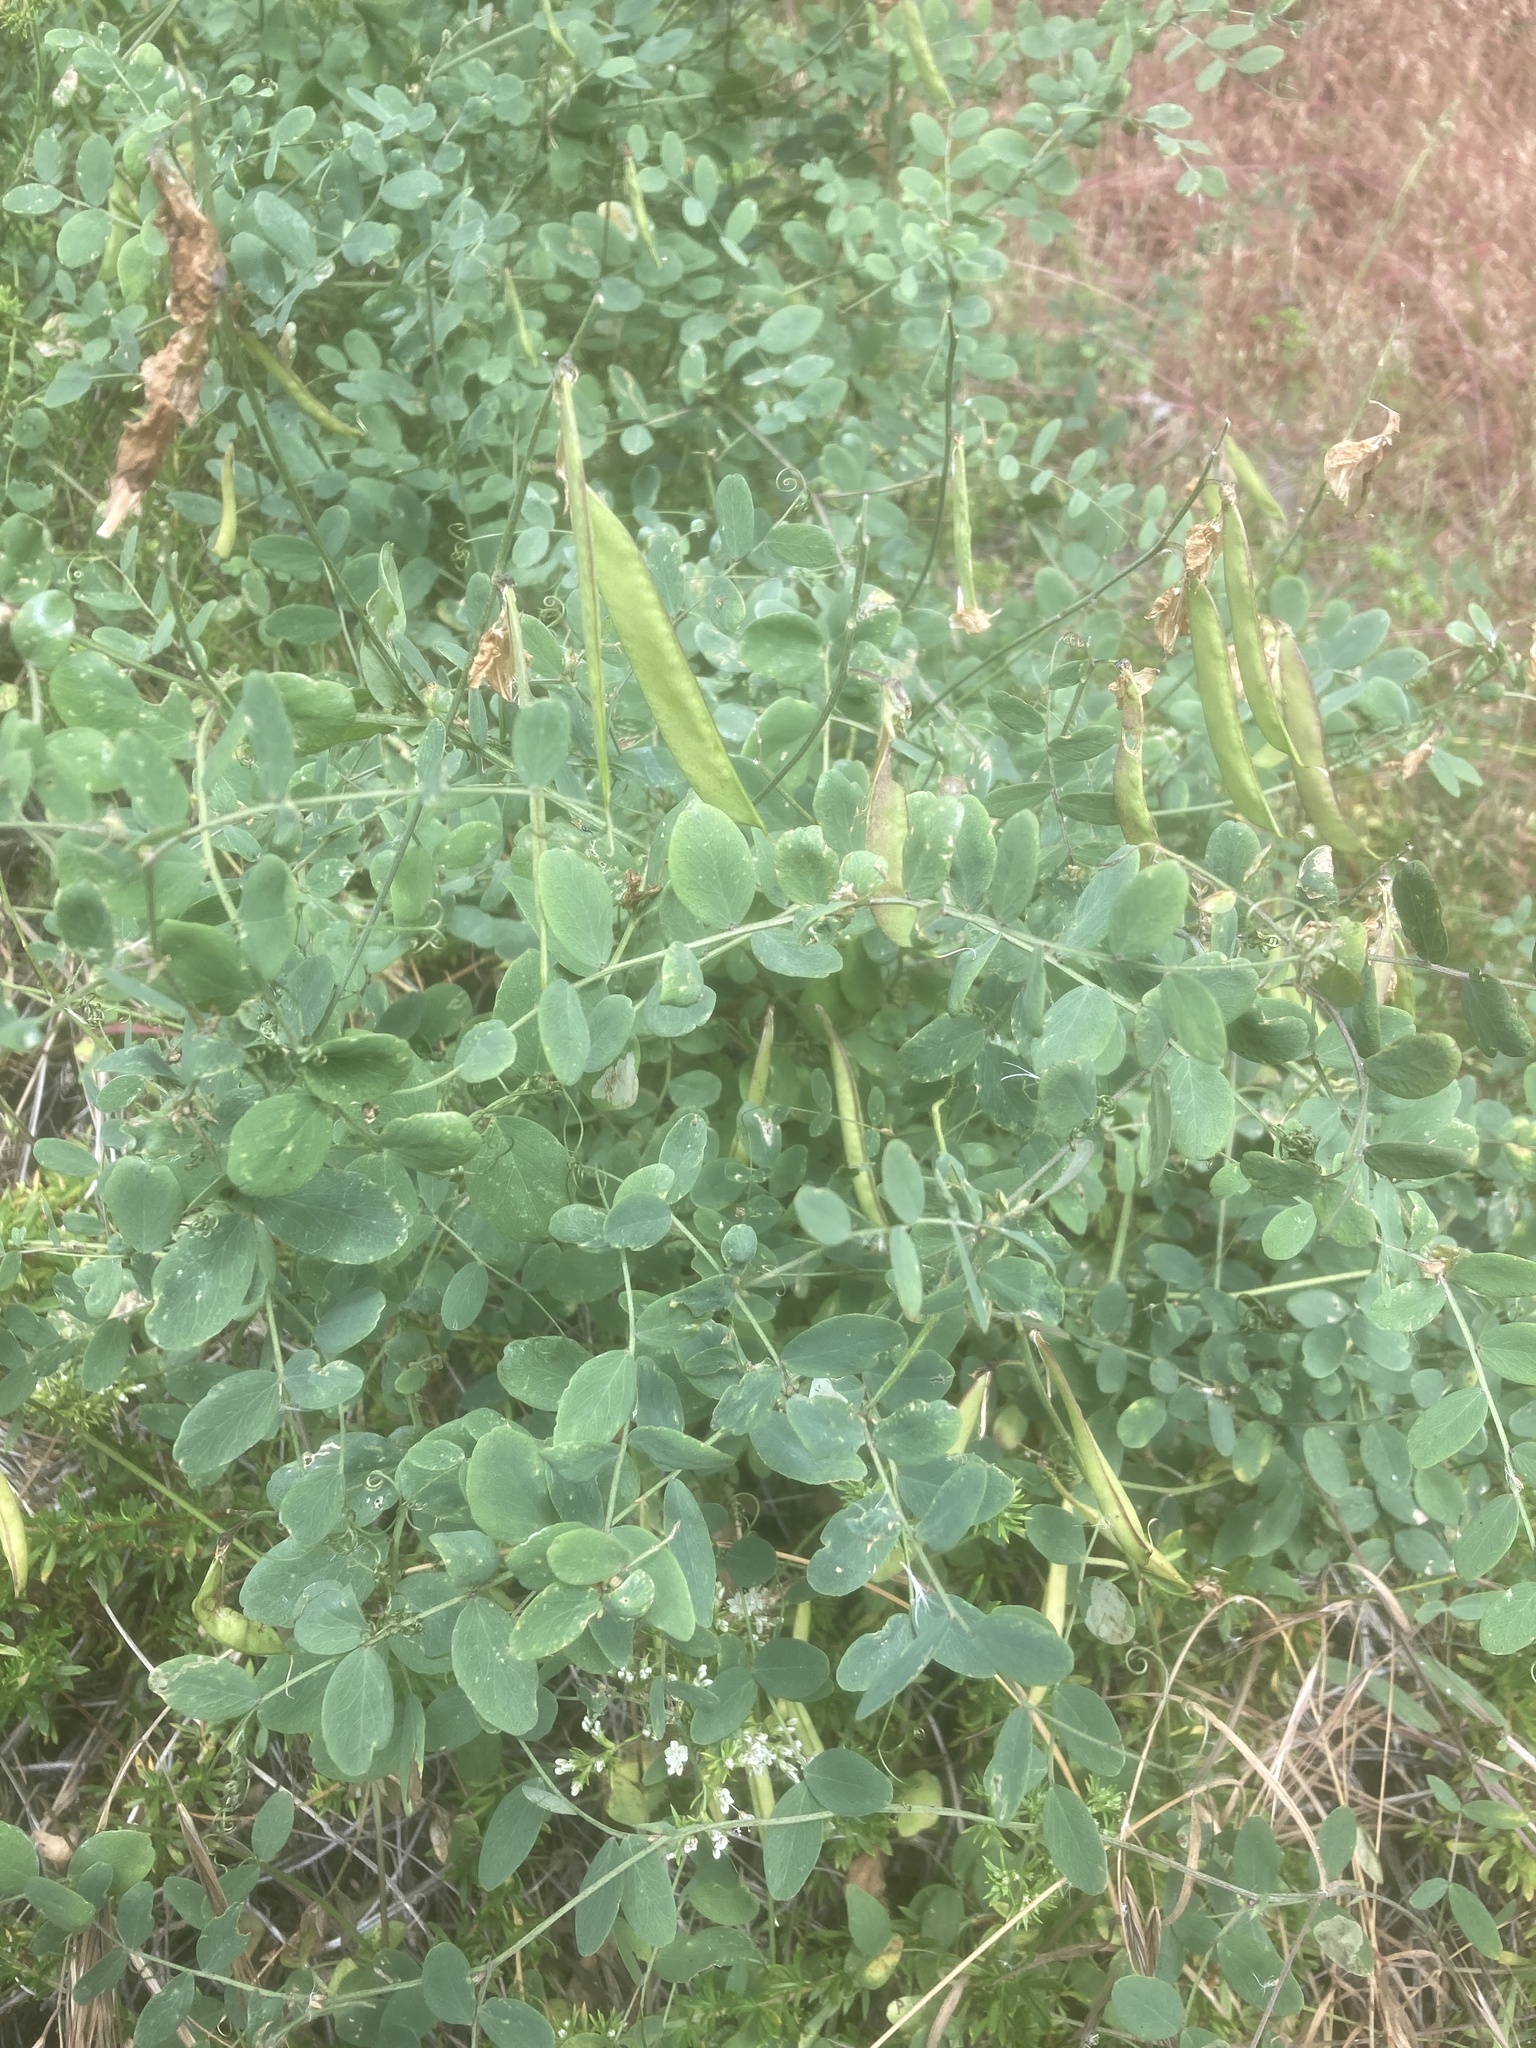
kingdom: Plantae
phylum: Tracheophyta
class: Magnoliopsida
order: Fabales
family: Fabaceae
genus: Lathyrus
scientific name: Lathyrus vestitus
